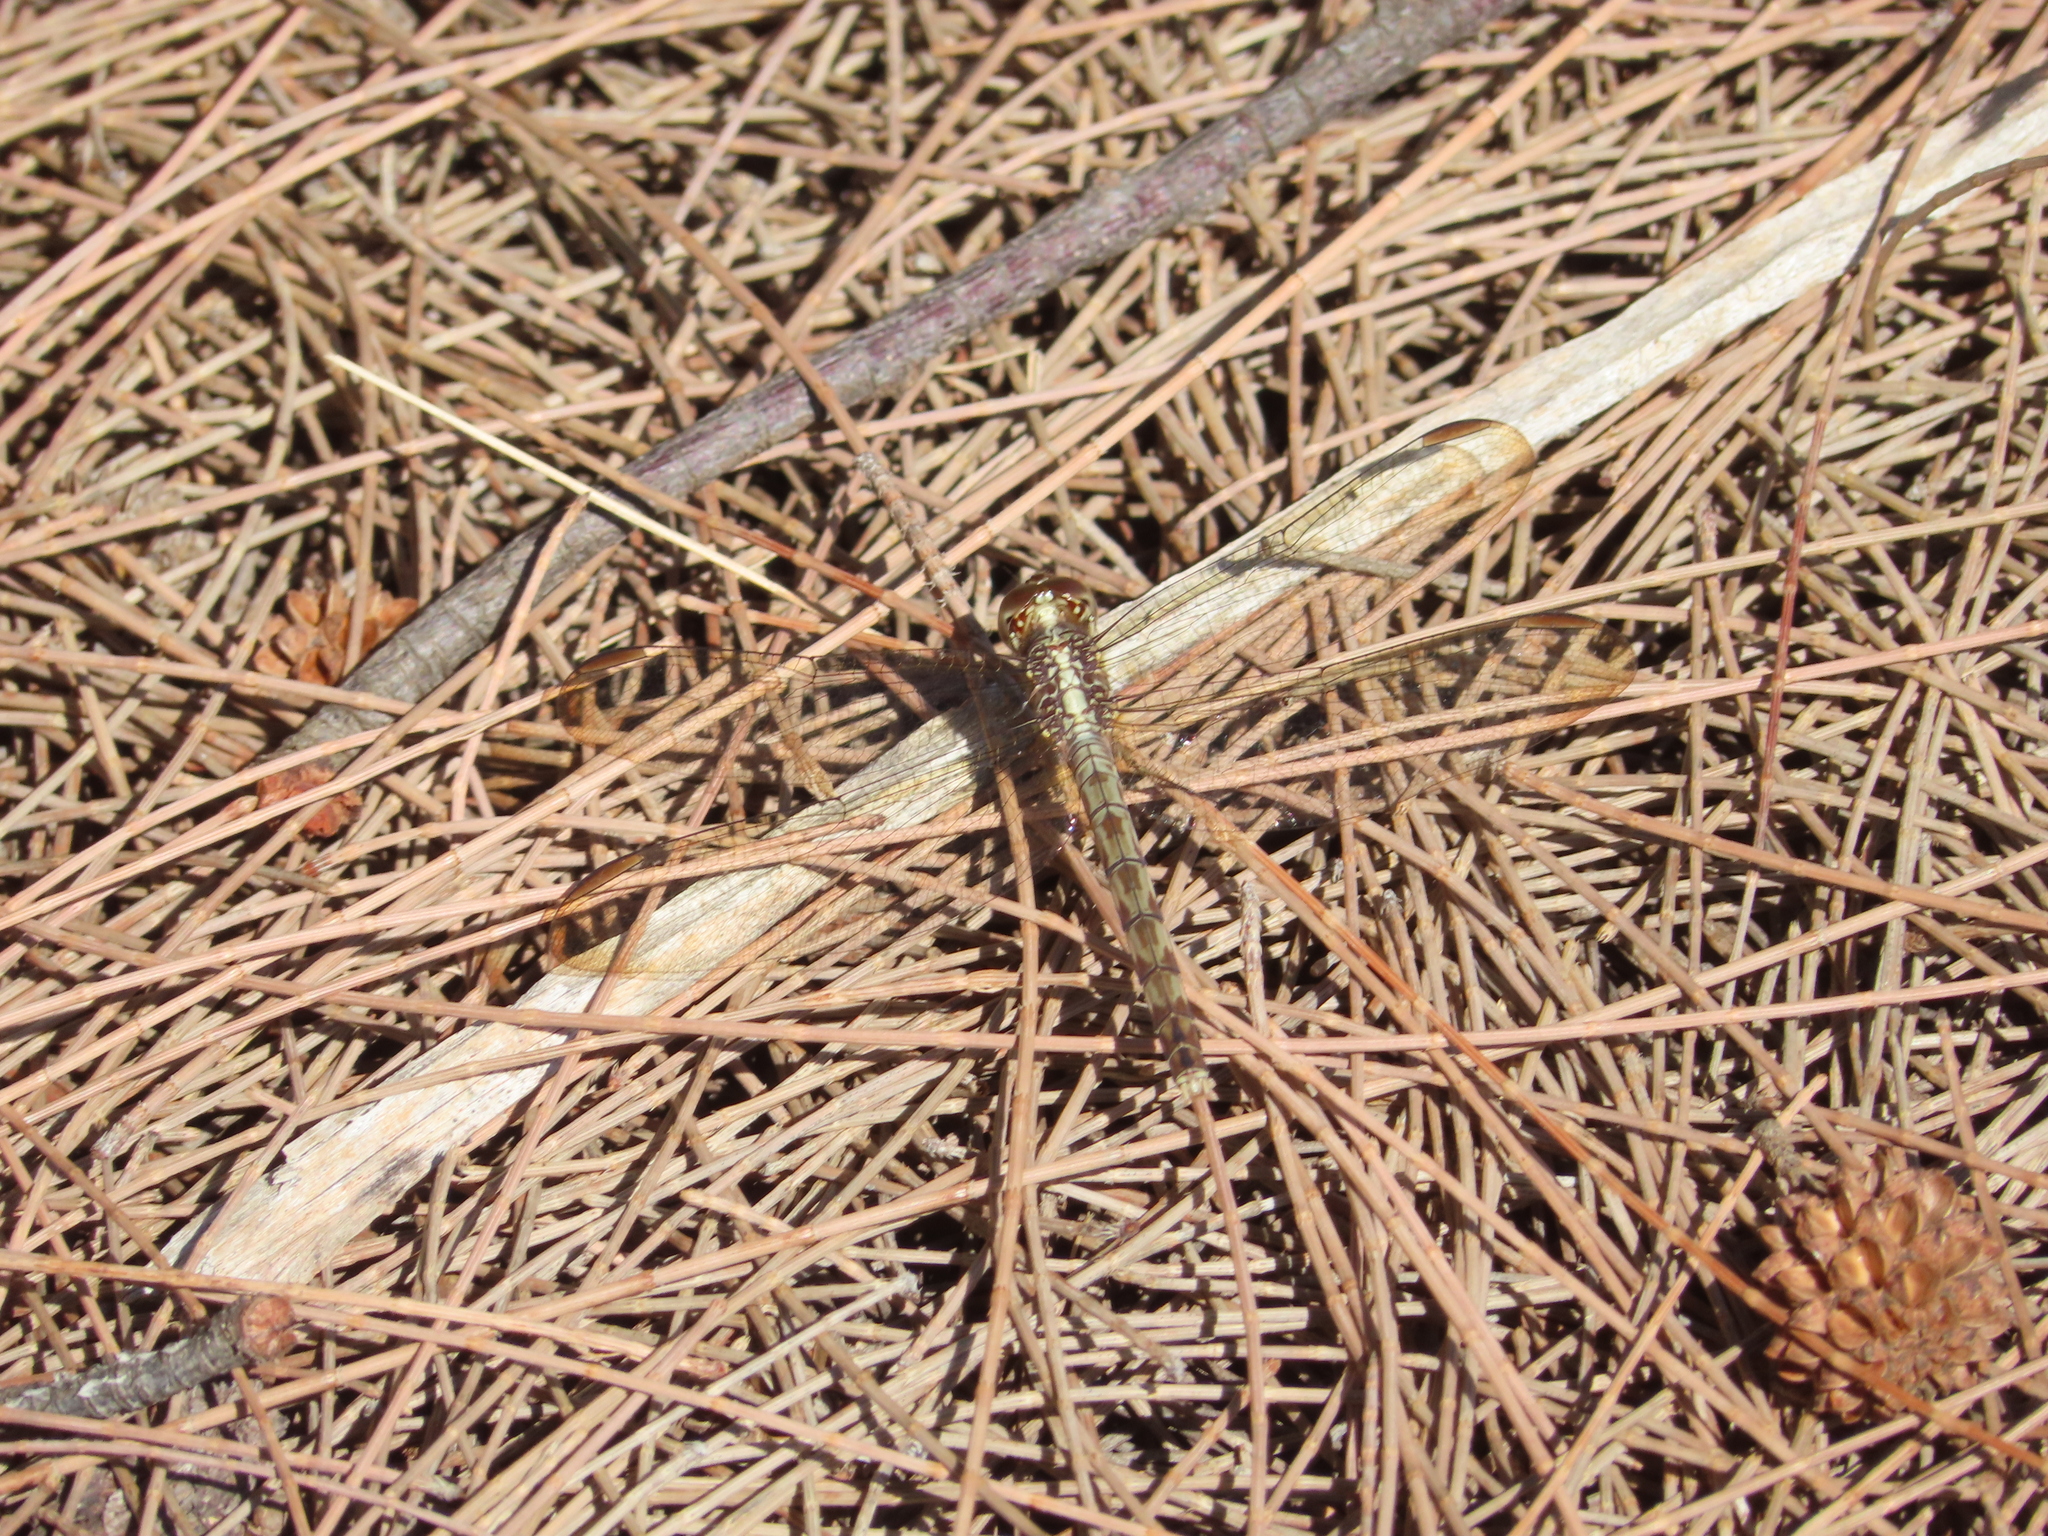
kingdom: Animalia
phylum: Arthropoda
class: Insecta
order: Odonata
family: Libellulidae
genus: Erythrodiplax
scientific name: Erythrodiplax umbrata
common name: Band-winged dragonlet
